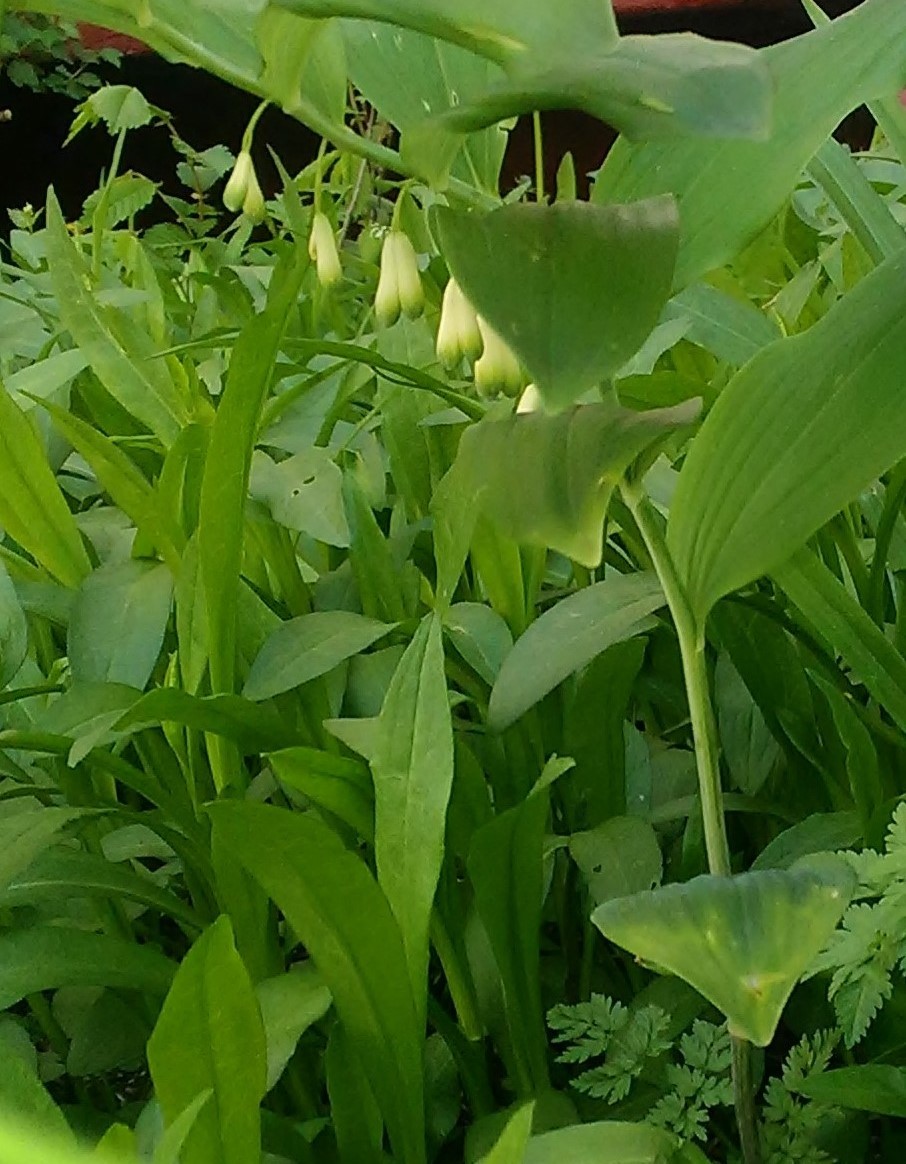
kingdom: Plantae
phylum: Tracheophyta
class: Liliopsida
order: Asparagales
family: Asparagaceae
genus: Polygonatum
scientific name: Polygonatum multiflorum
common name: Solomon's-seal
